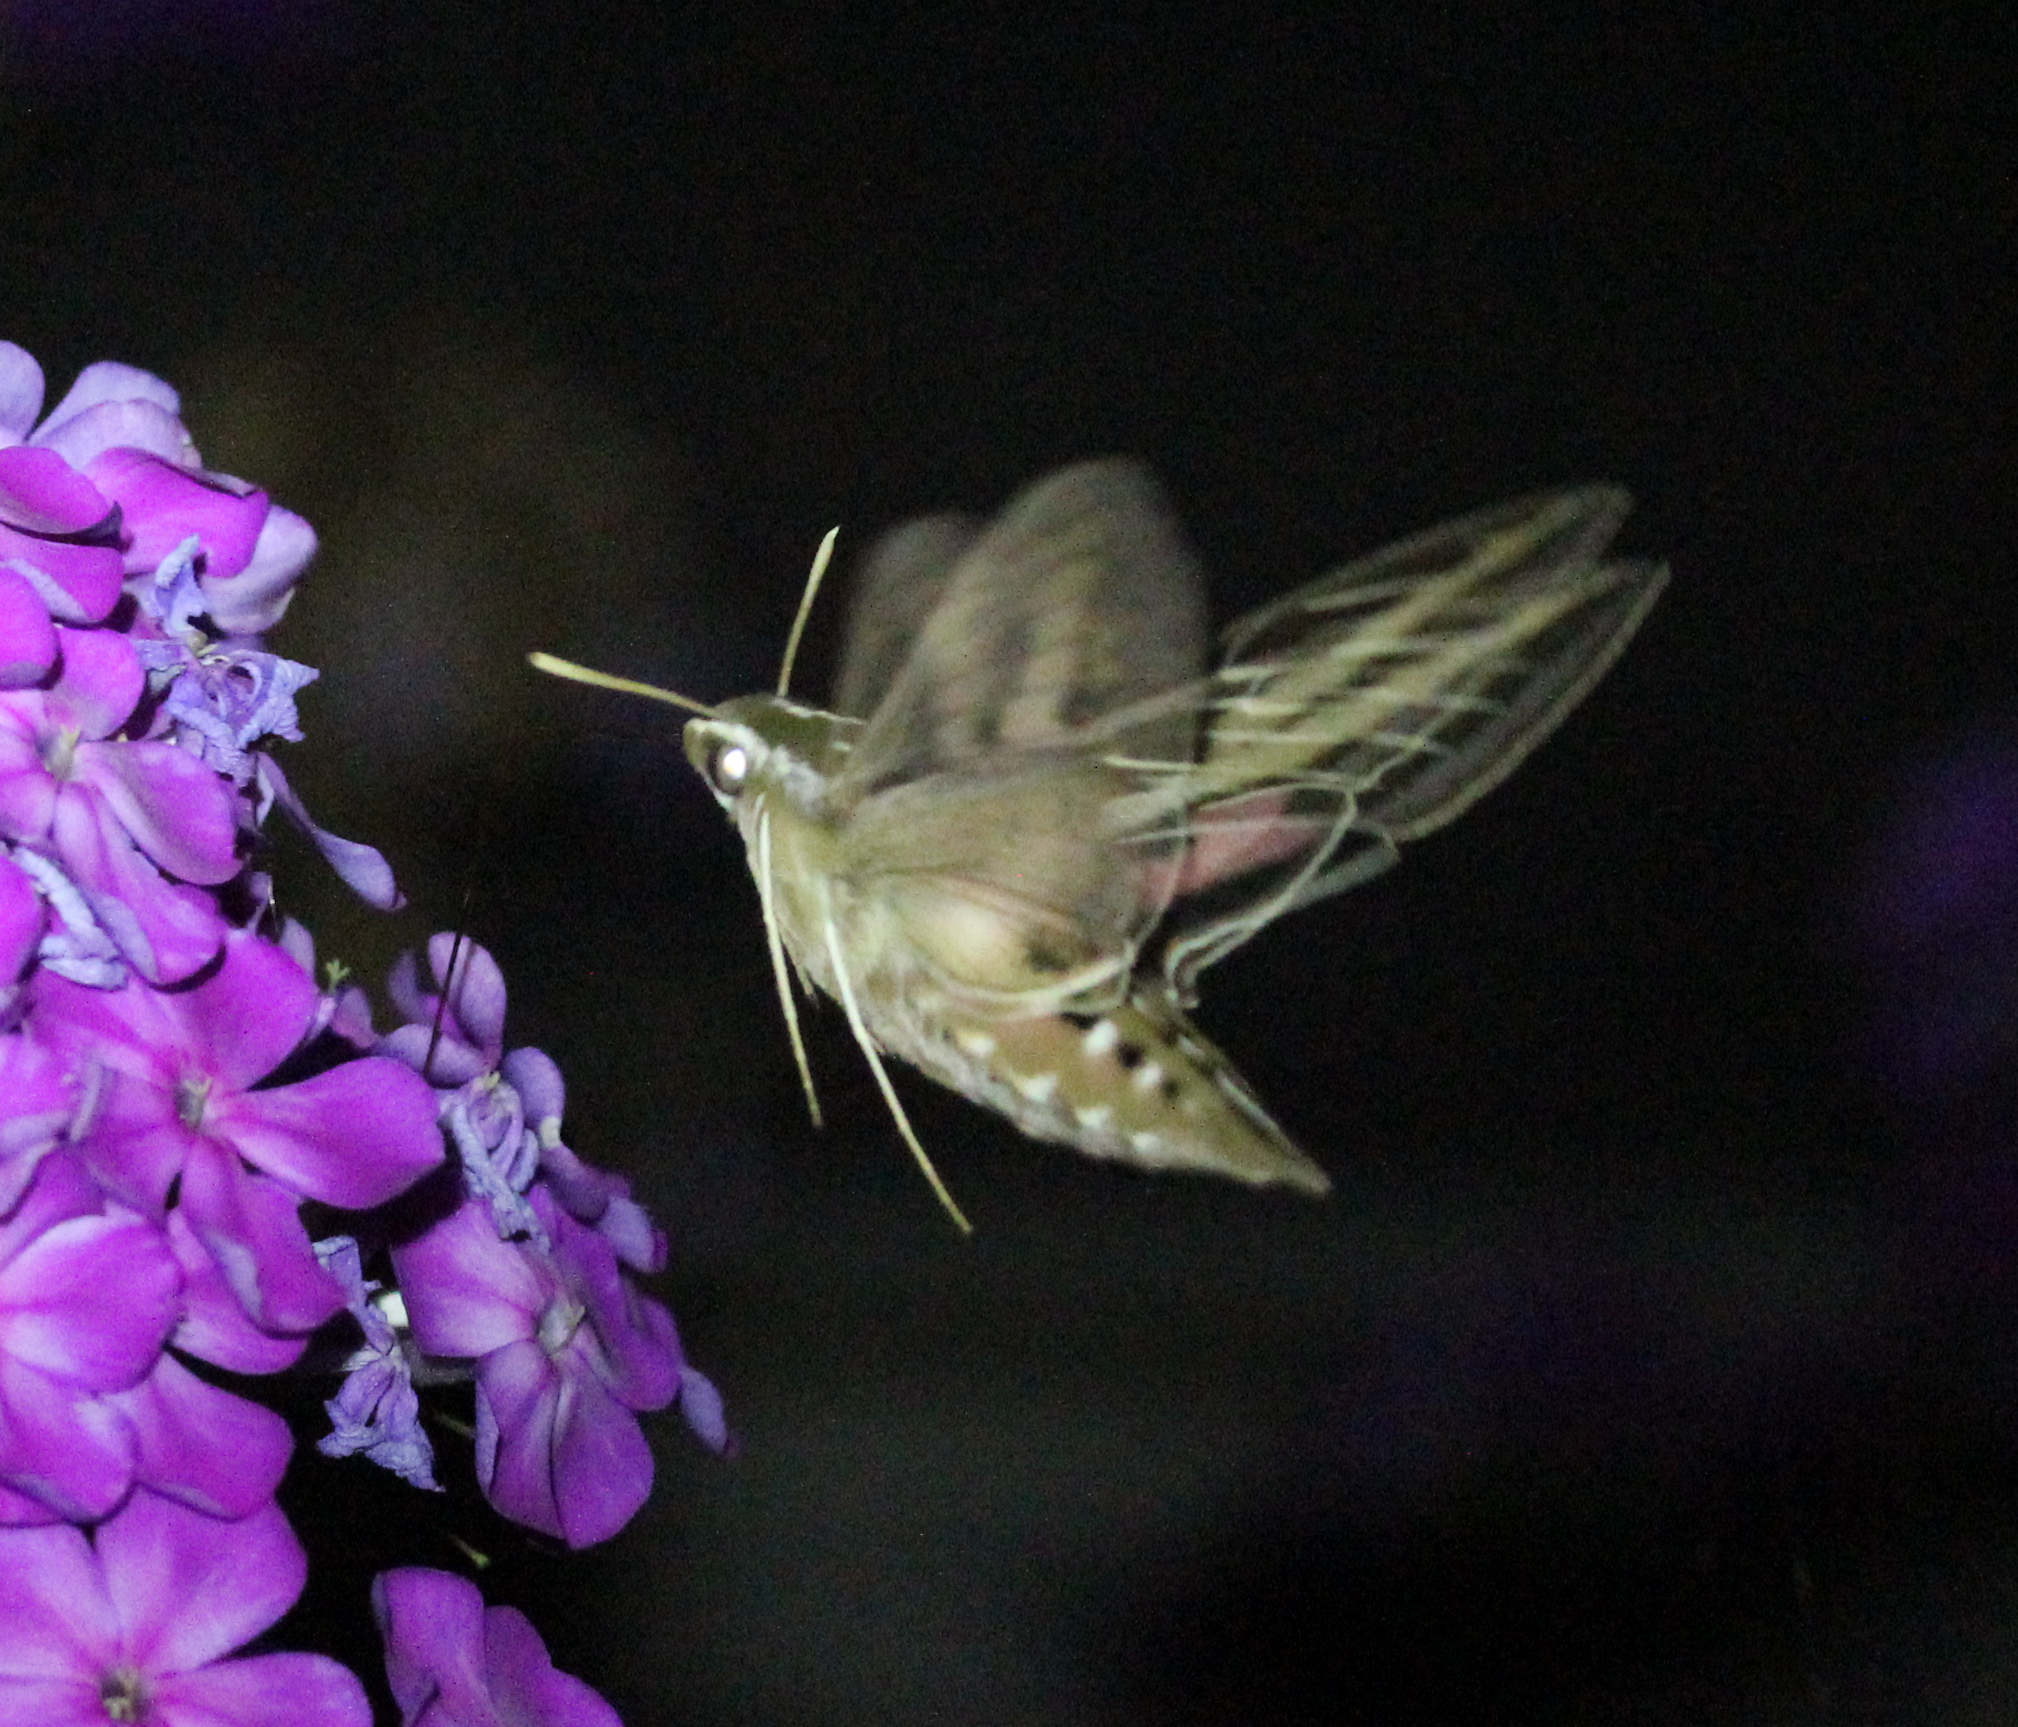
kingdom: Animalia
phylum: Arthropoda
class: Insecta
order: Lepidoptera
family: Sphingidae
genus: Hyles
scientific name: Hyles lineata
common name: White-lined sphinx
